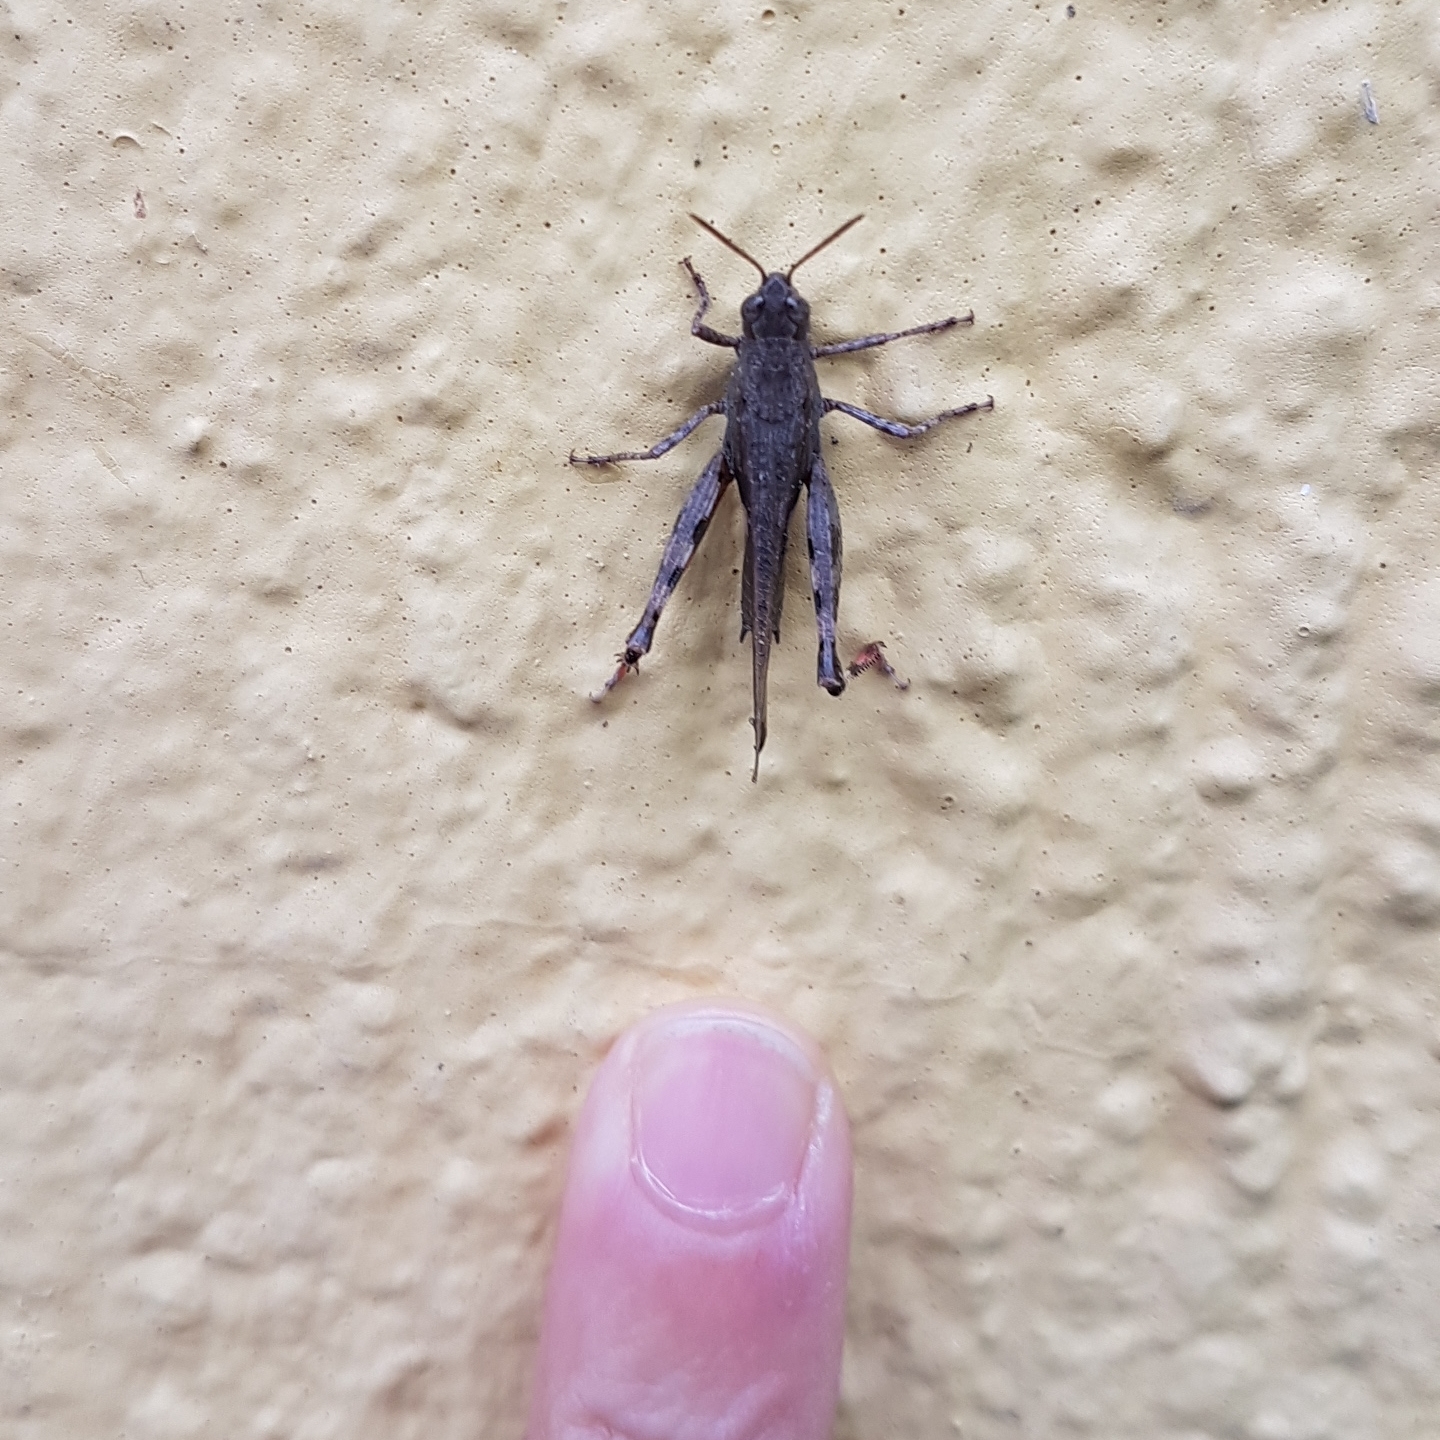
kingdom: Animalia
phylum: Arthropoda
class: Insecta
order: Orthoptera
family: Acrididae
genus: Aiolopus
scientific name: Aiolopus strepens
